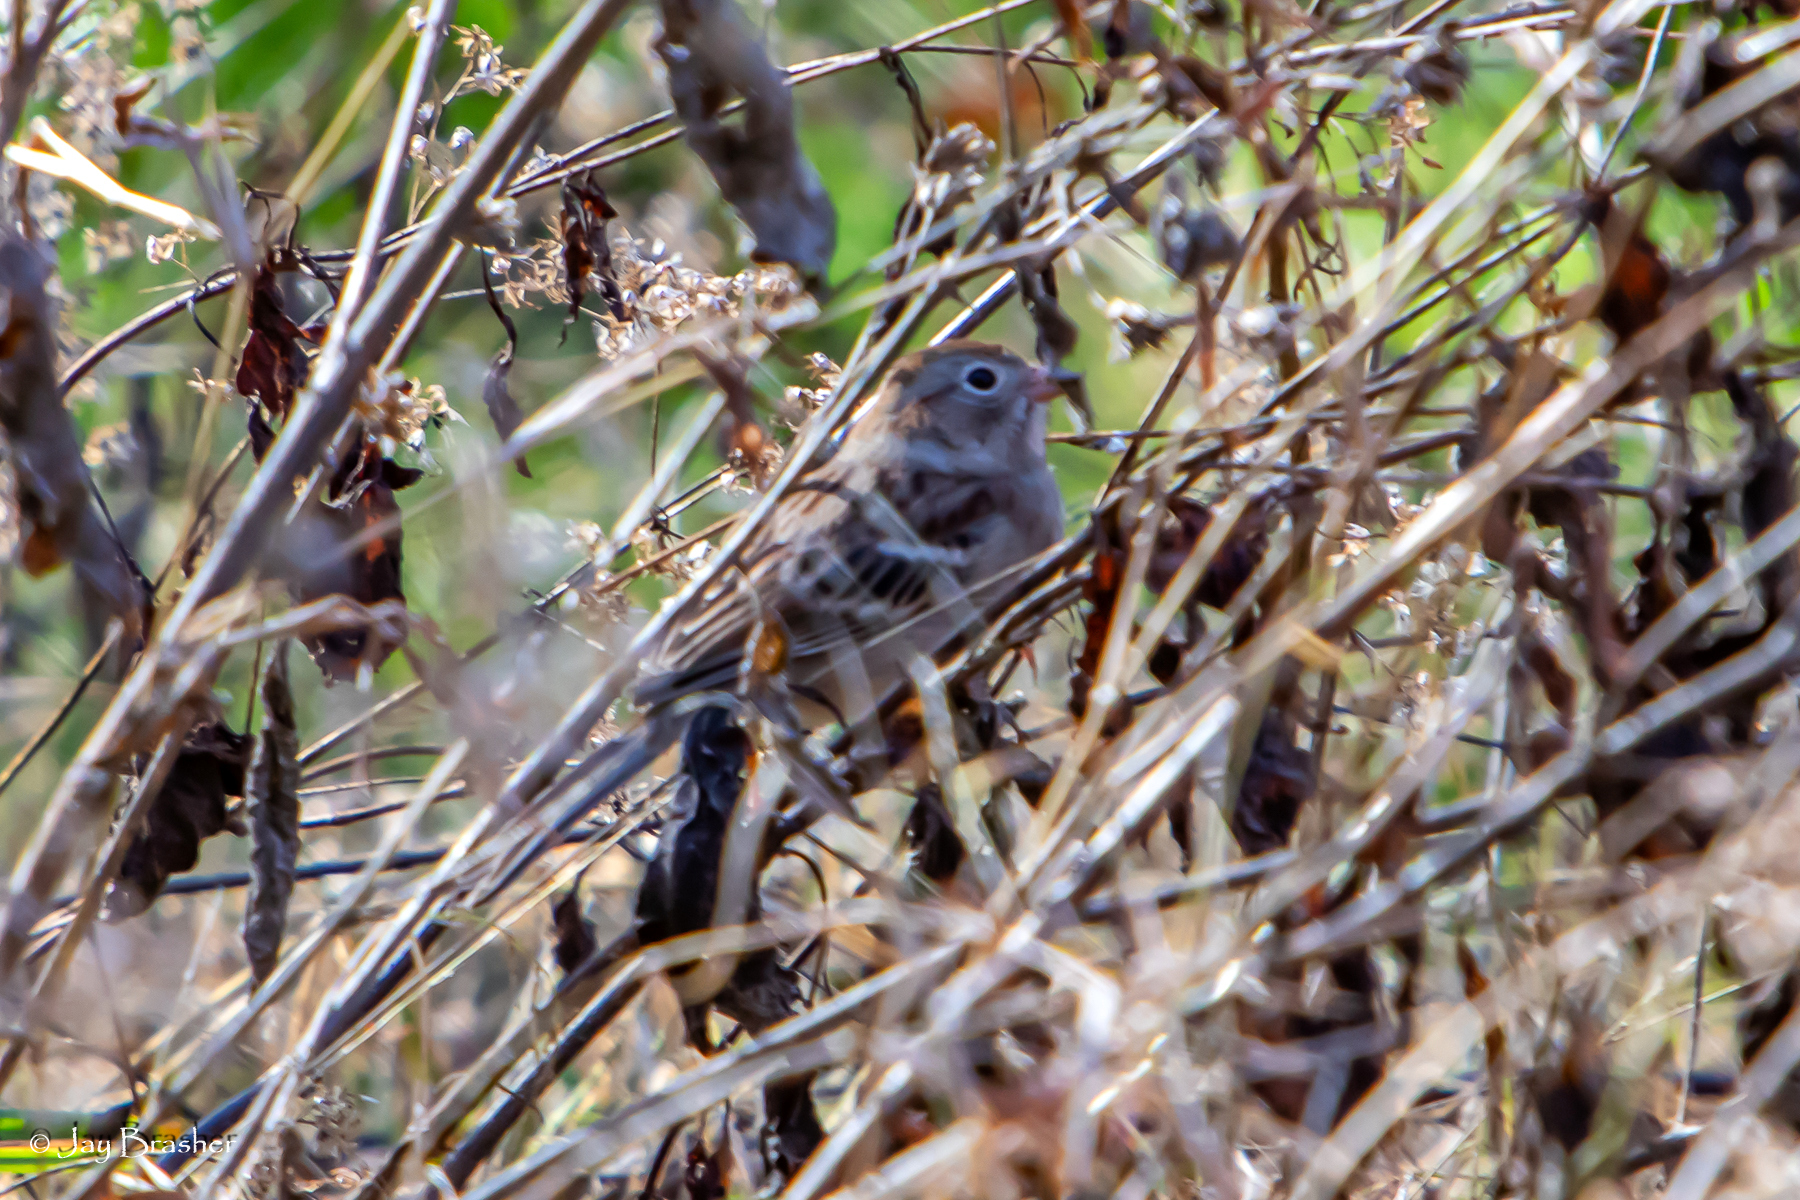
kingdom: Animalia
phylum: Chordata
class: Aves
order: Passeriformes
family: Passerellidae
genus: Spizella
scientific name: Spizella pusilla
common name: Field sparrow
